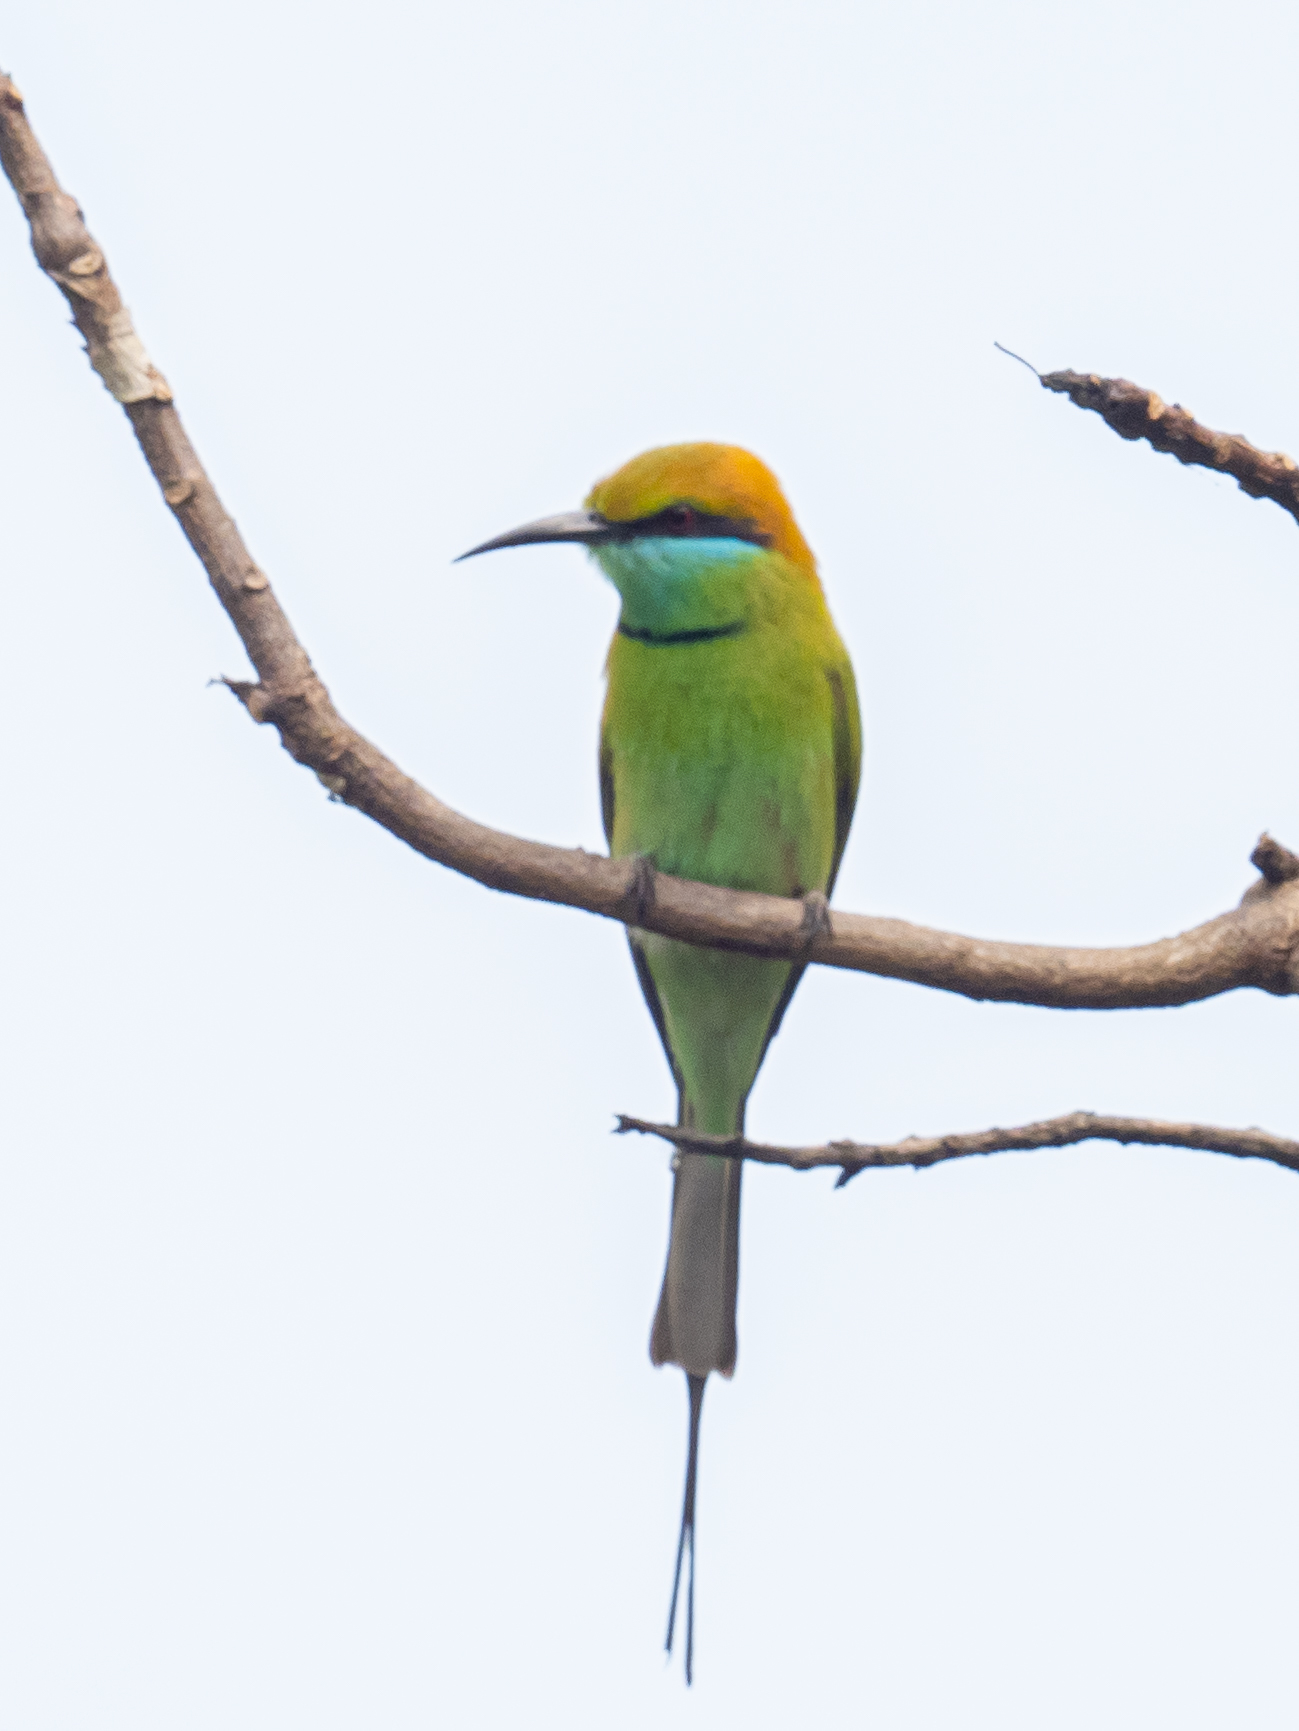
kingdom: Animalia
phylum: Chordata
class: Aves
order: Coraciiformes
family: Meropidae
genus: Merops
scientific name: Merops orientalis
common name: Green bee-eater
